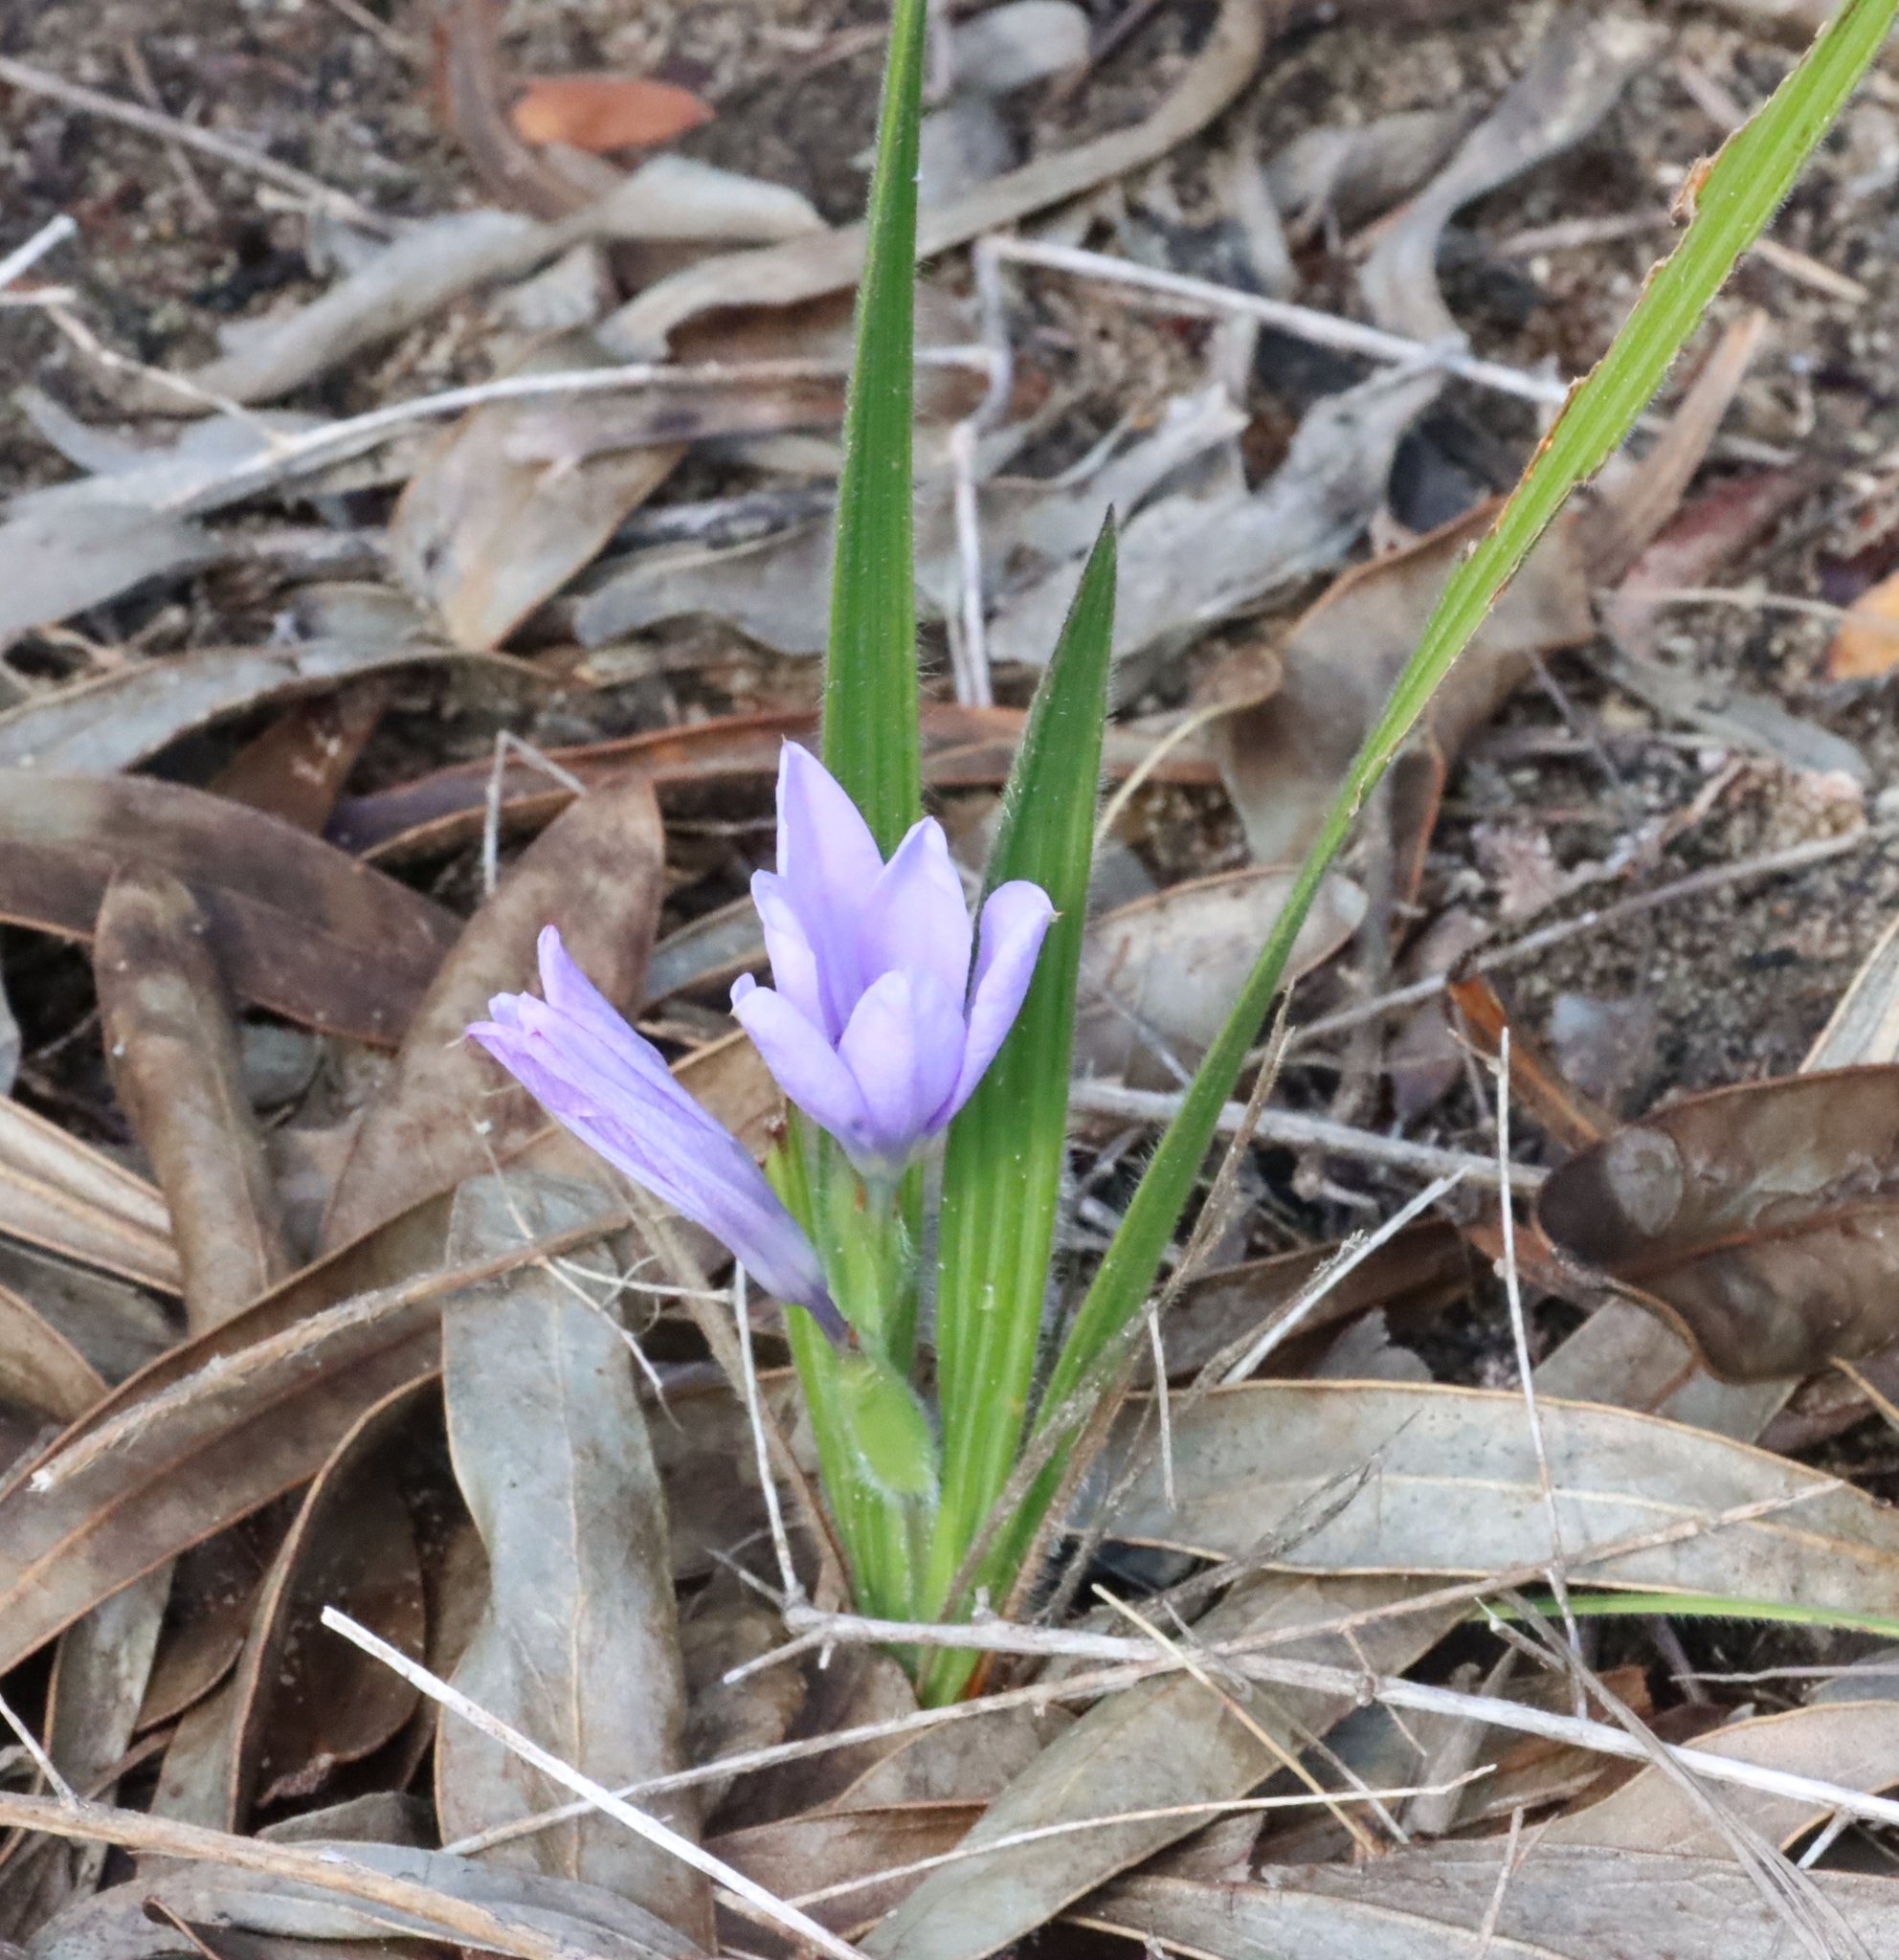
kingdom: Plantae
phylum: Tracheophyta
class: Liliopsida
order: Asparagales
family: Iridaceae
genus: Babiana
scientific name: Babiana villosula
